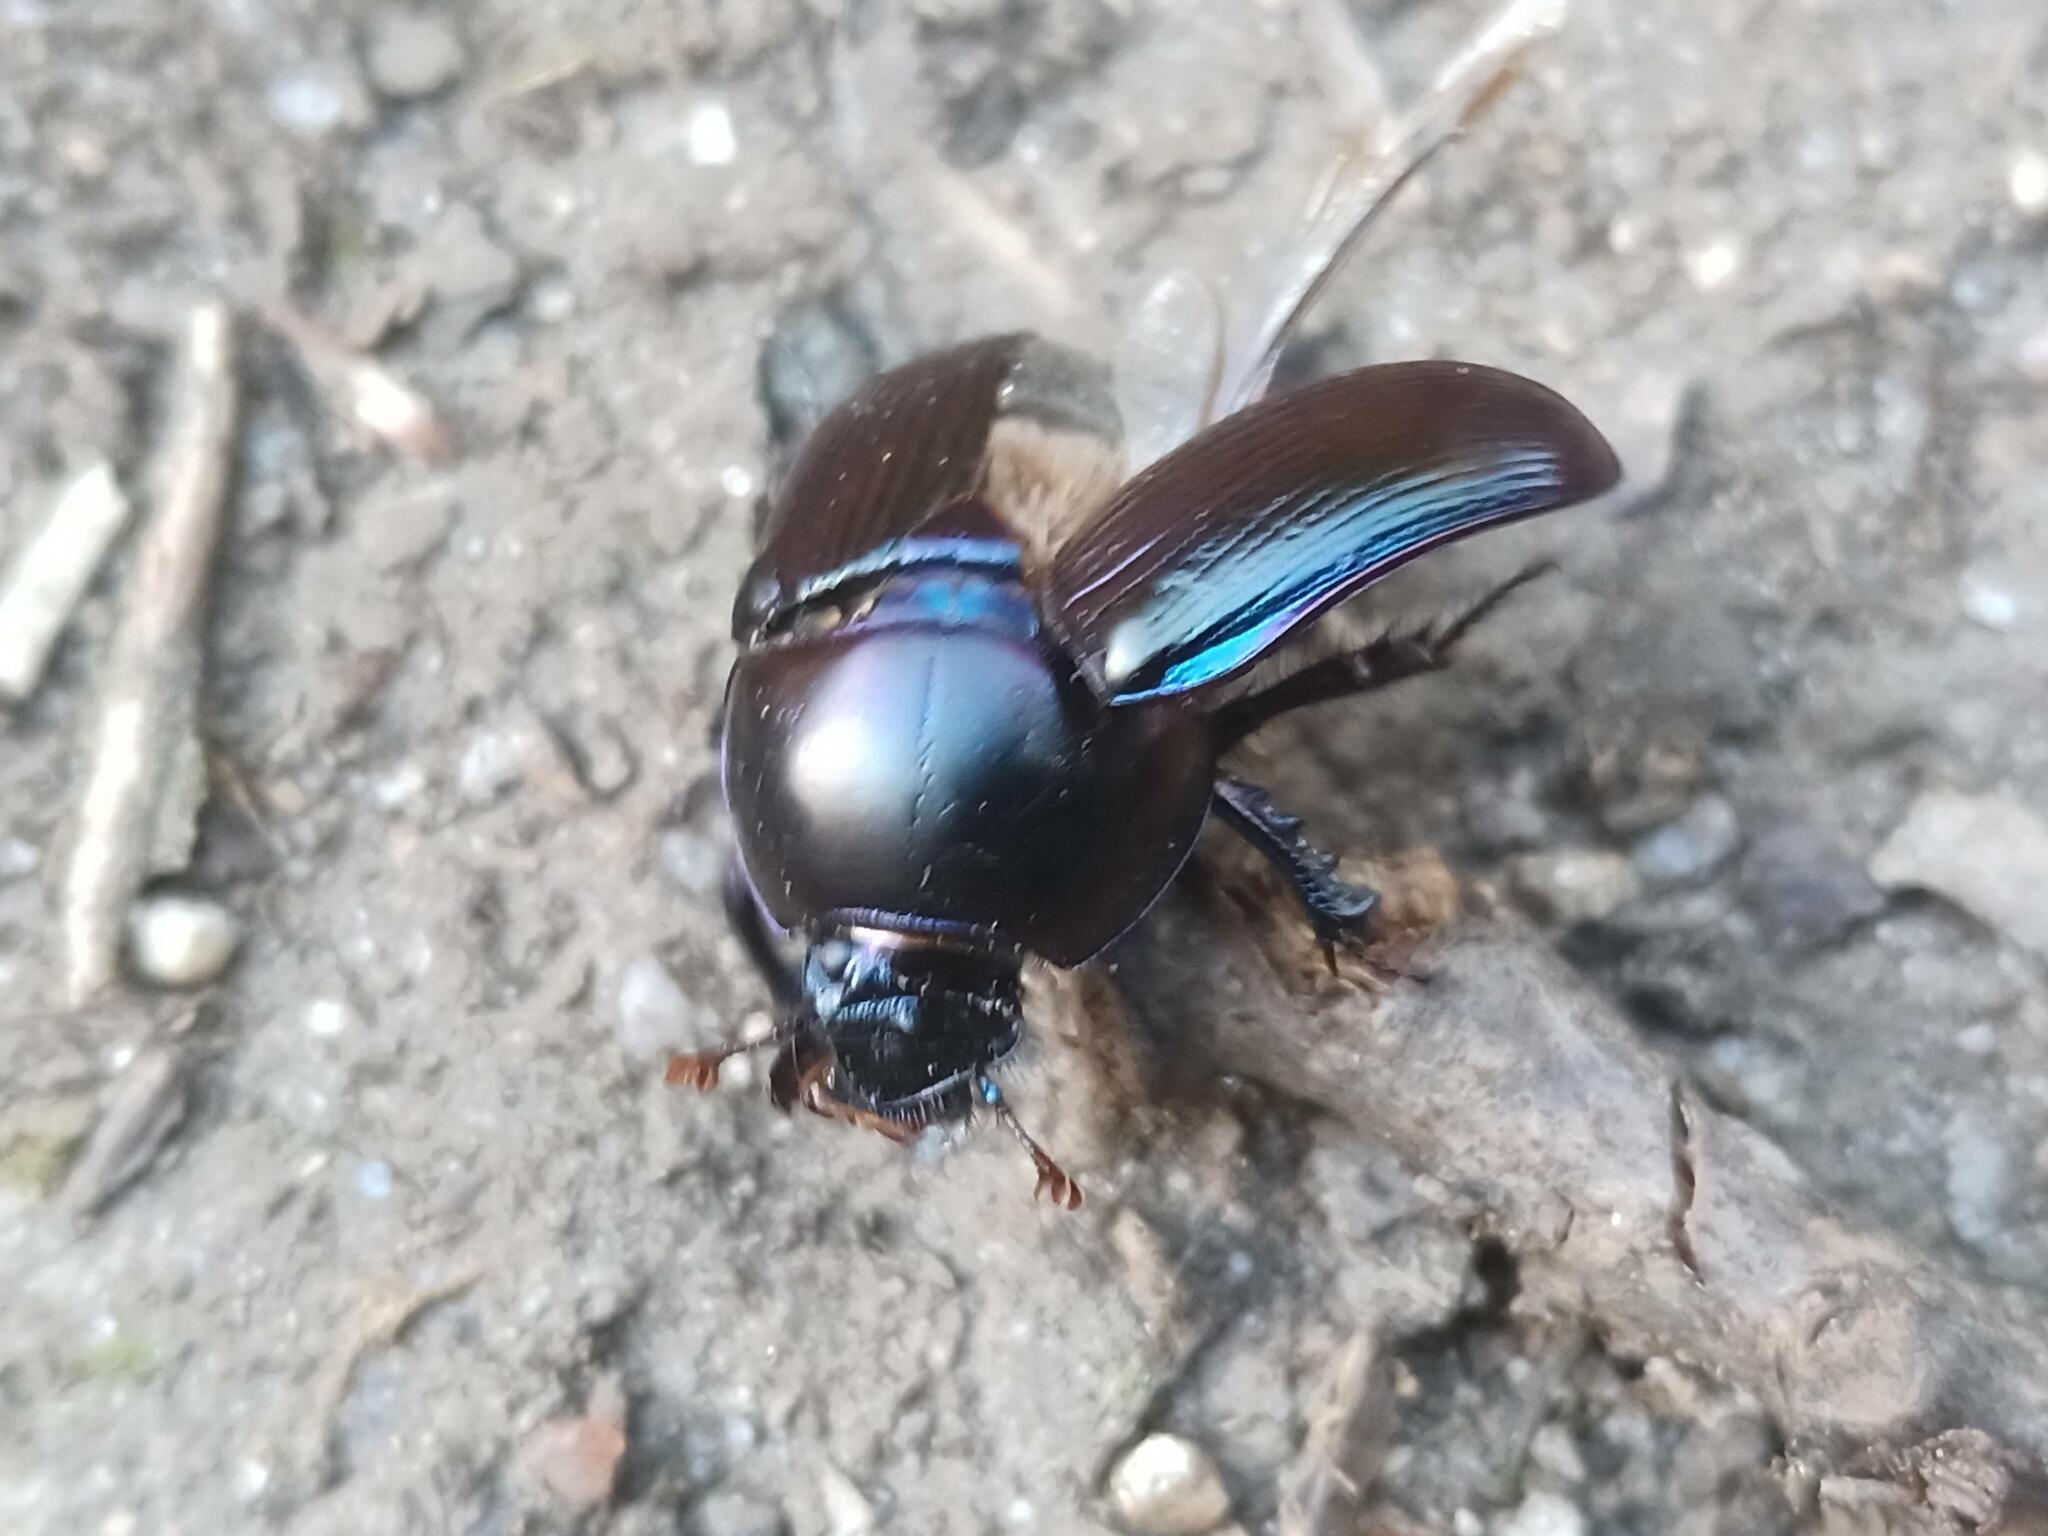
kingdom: Animalia
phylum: Arthropoda
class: Insecta
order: Coleoptera
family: Geotrupidae
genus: Geotrupes
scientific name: Geotrupes ibericus
